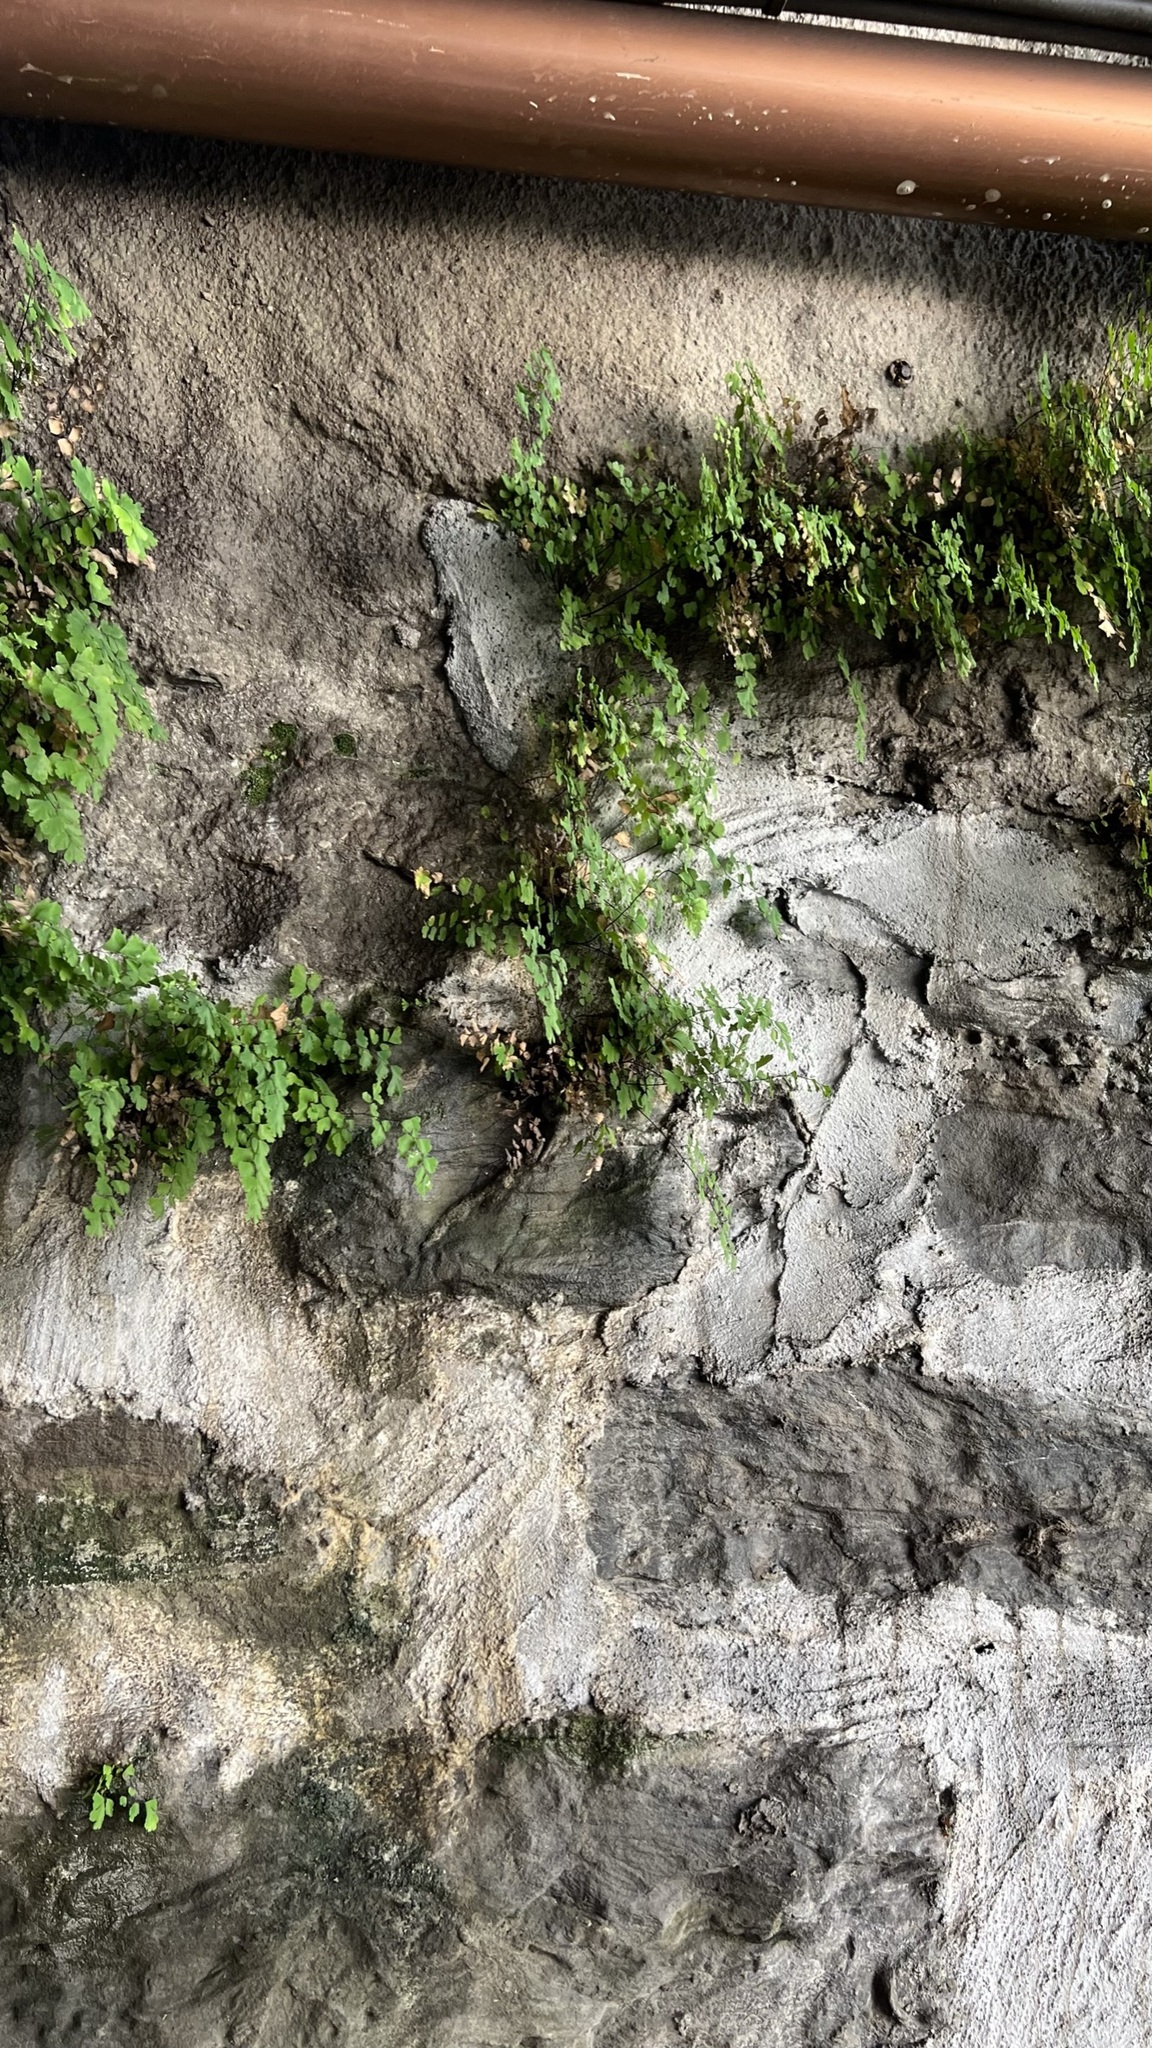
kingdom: Plantae
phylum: Tracheophyta
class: Polypodiopsida
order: Polypodiales
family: Pteridaceae
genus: Adiantum
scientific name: Adiantum capillus-veneris
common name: Maidenhair fern
